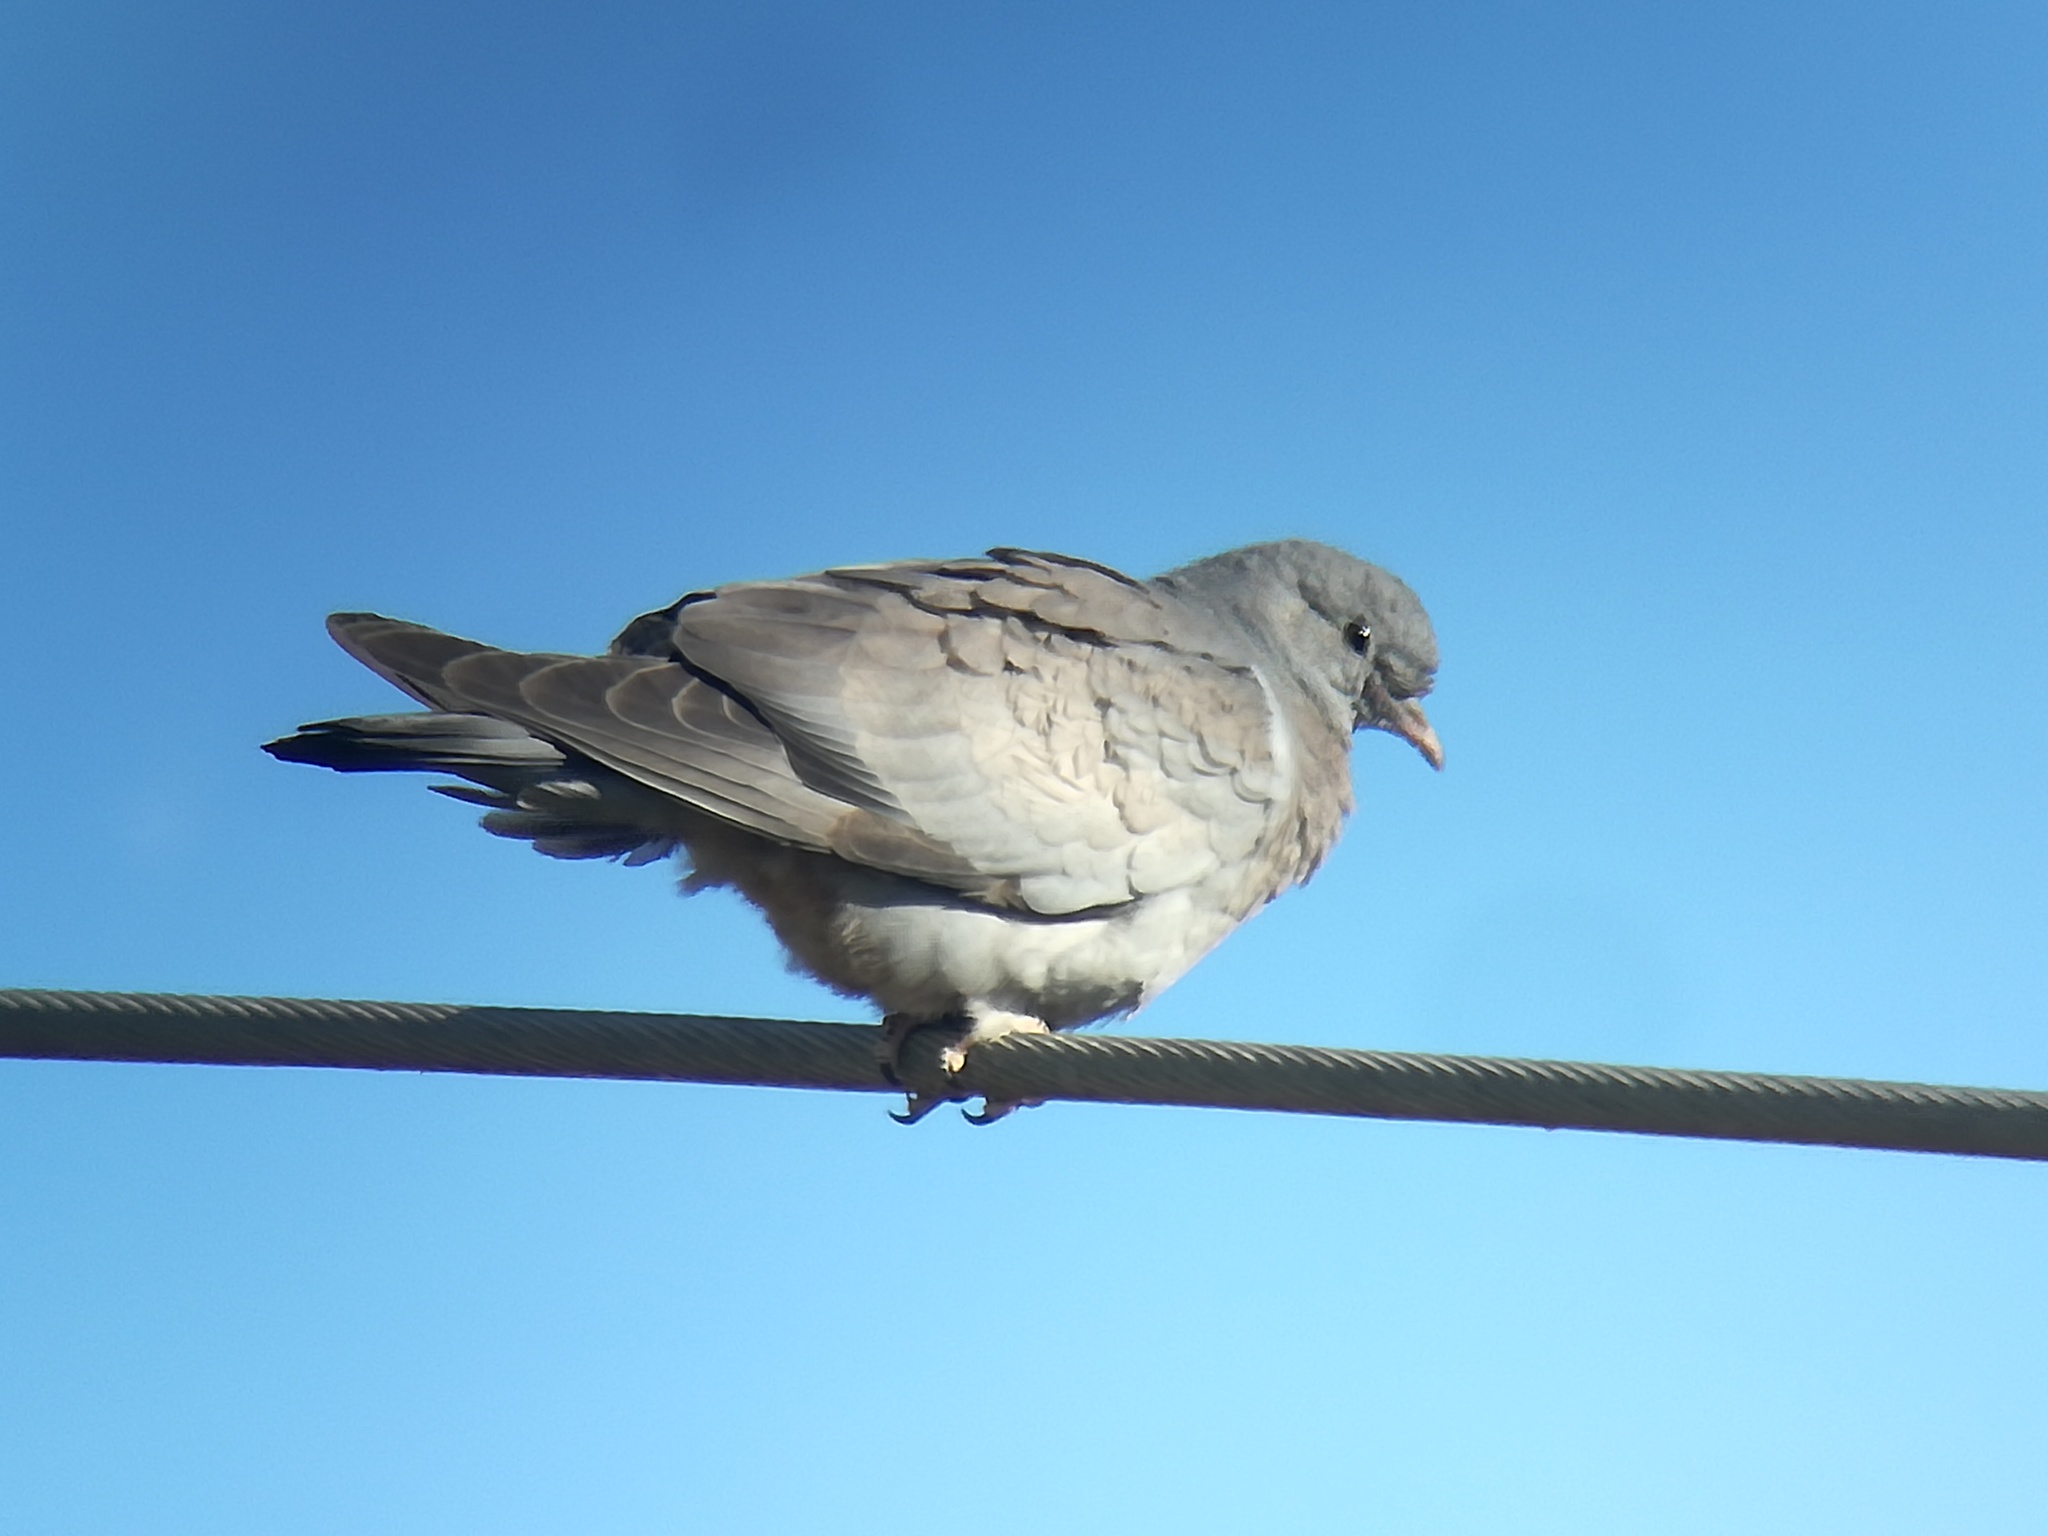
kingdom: Animalia
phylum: Chordata
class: Aves
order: Columbiformes
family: Columbidae
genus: Columba
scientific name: Columba oenas
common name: Stock dove
